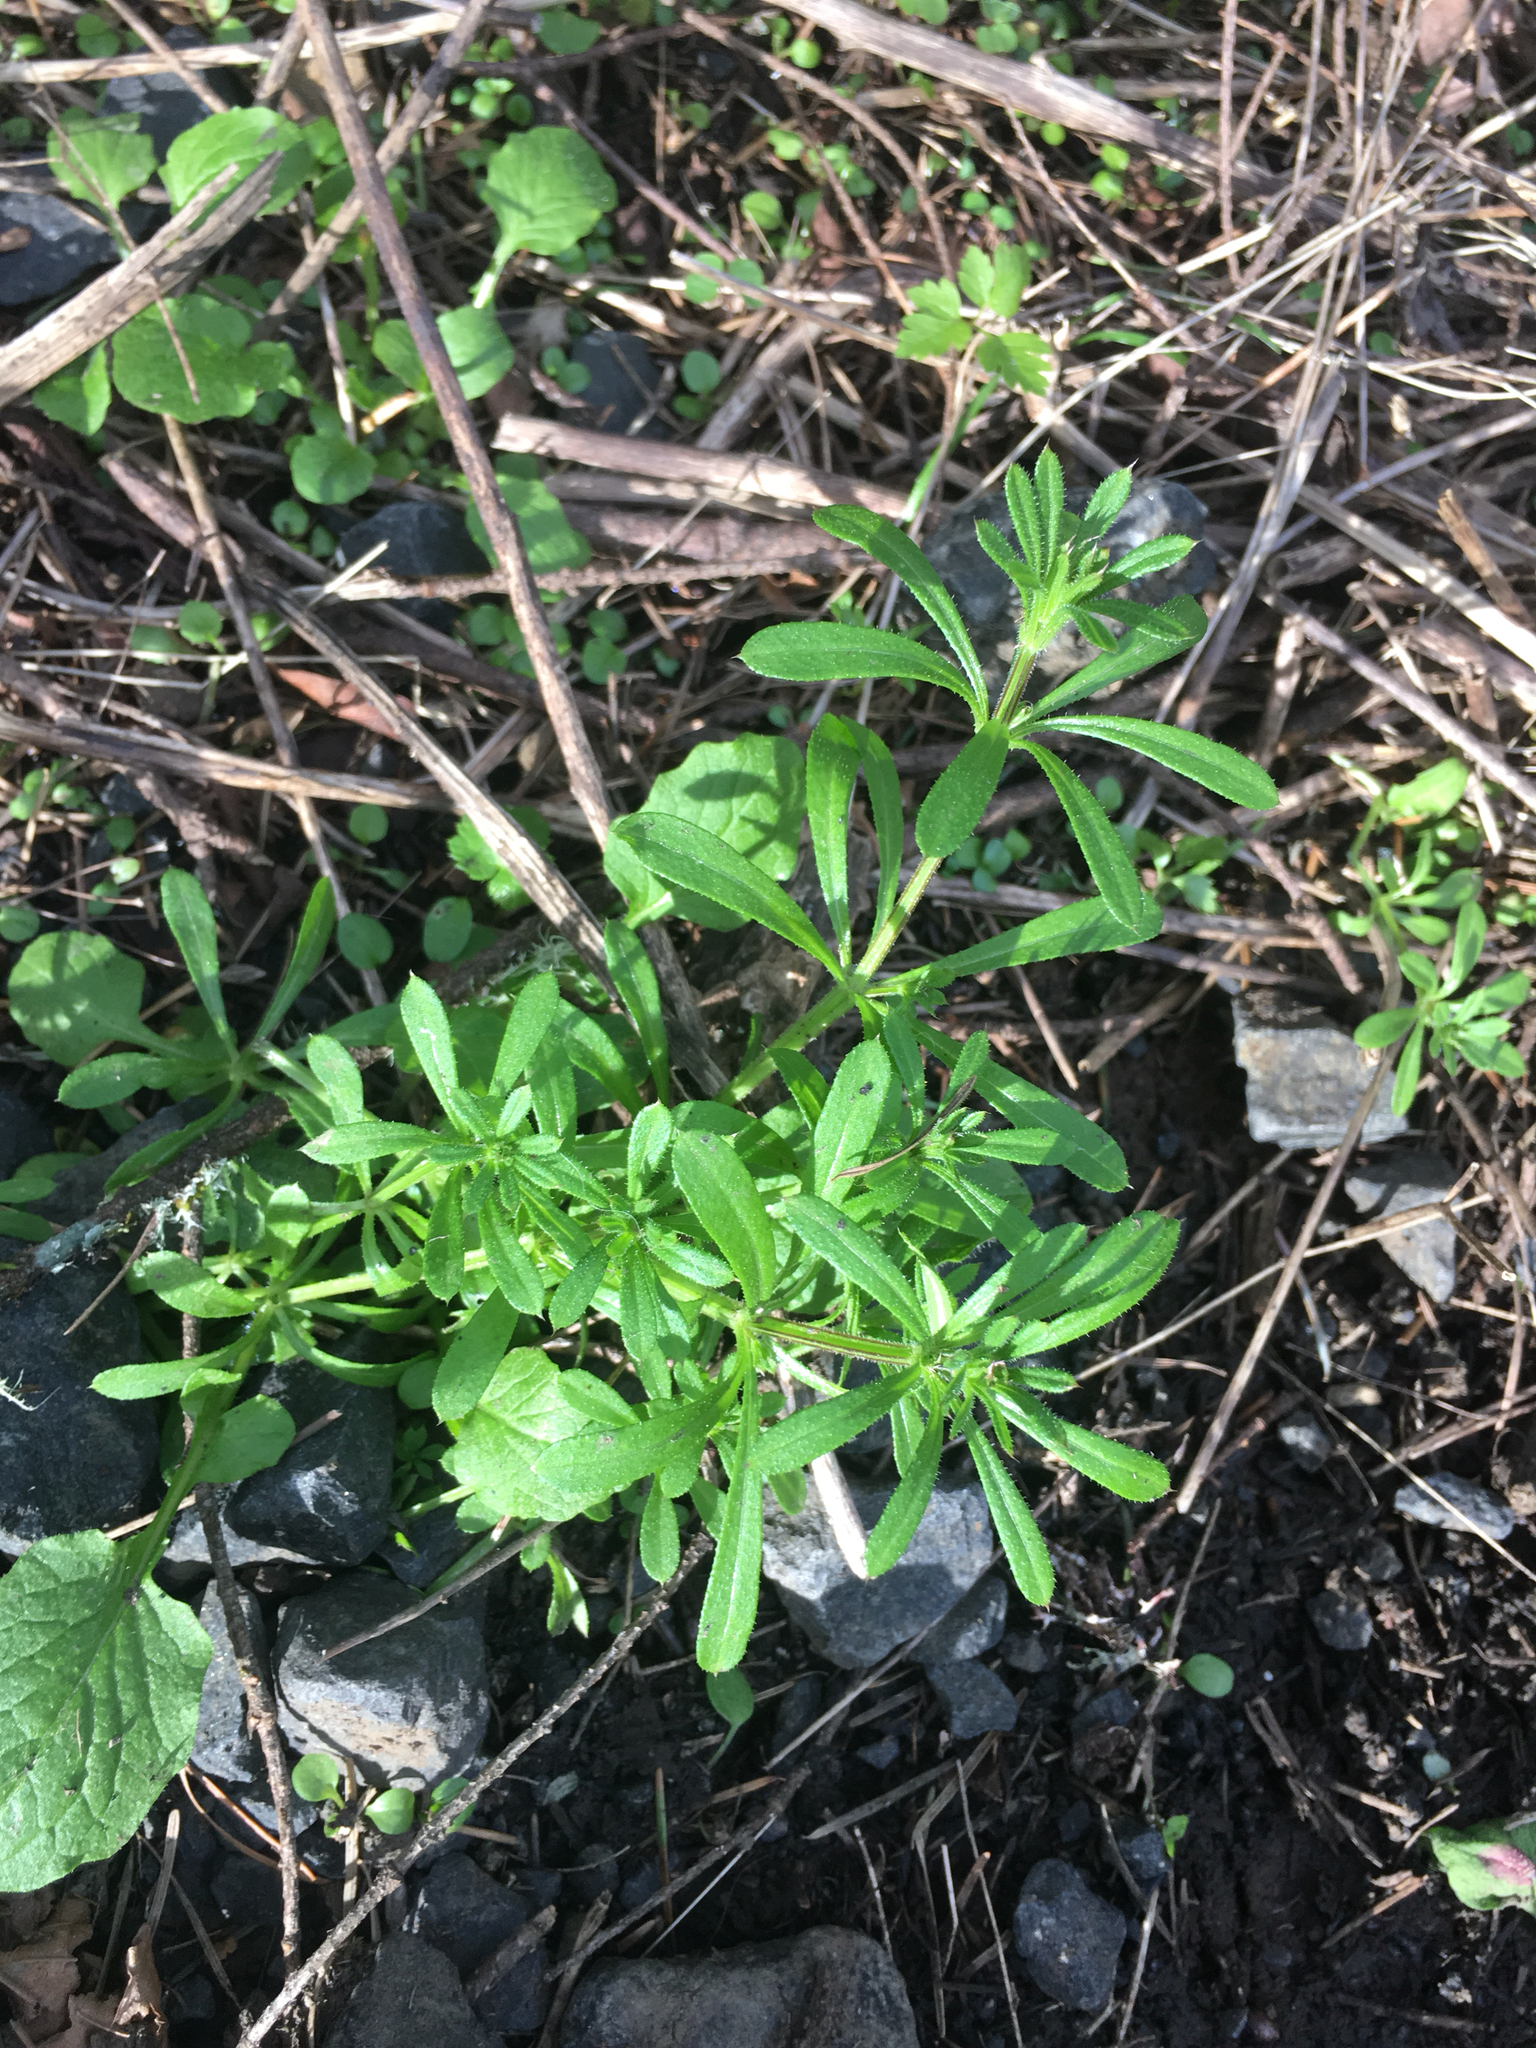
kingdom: Plantae
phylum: Tracheophyta
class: Magnoliopsida
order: Gentianales
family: Rubiaceae
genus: Galium
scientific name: Galium aparine
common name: Cleavers
